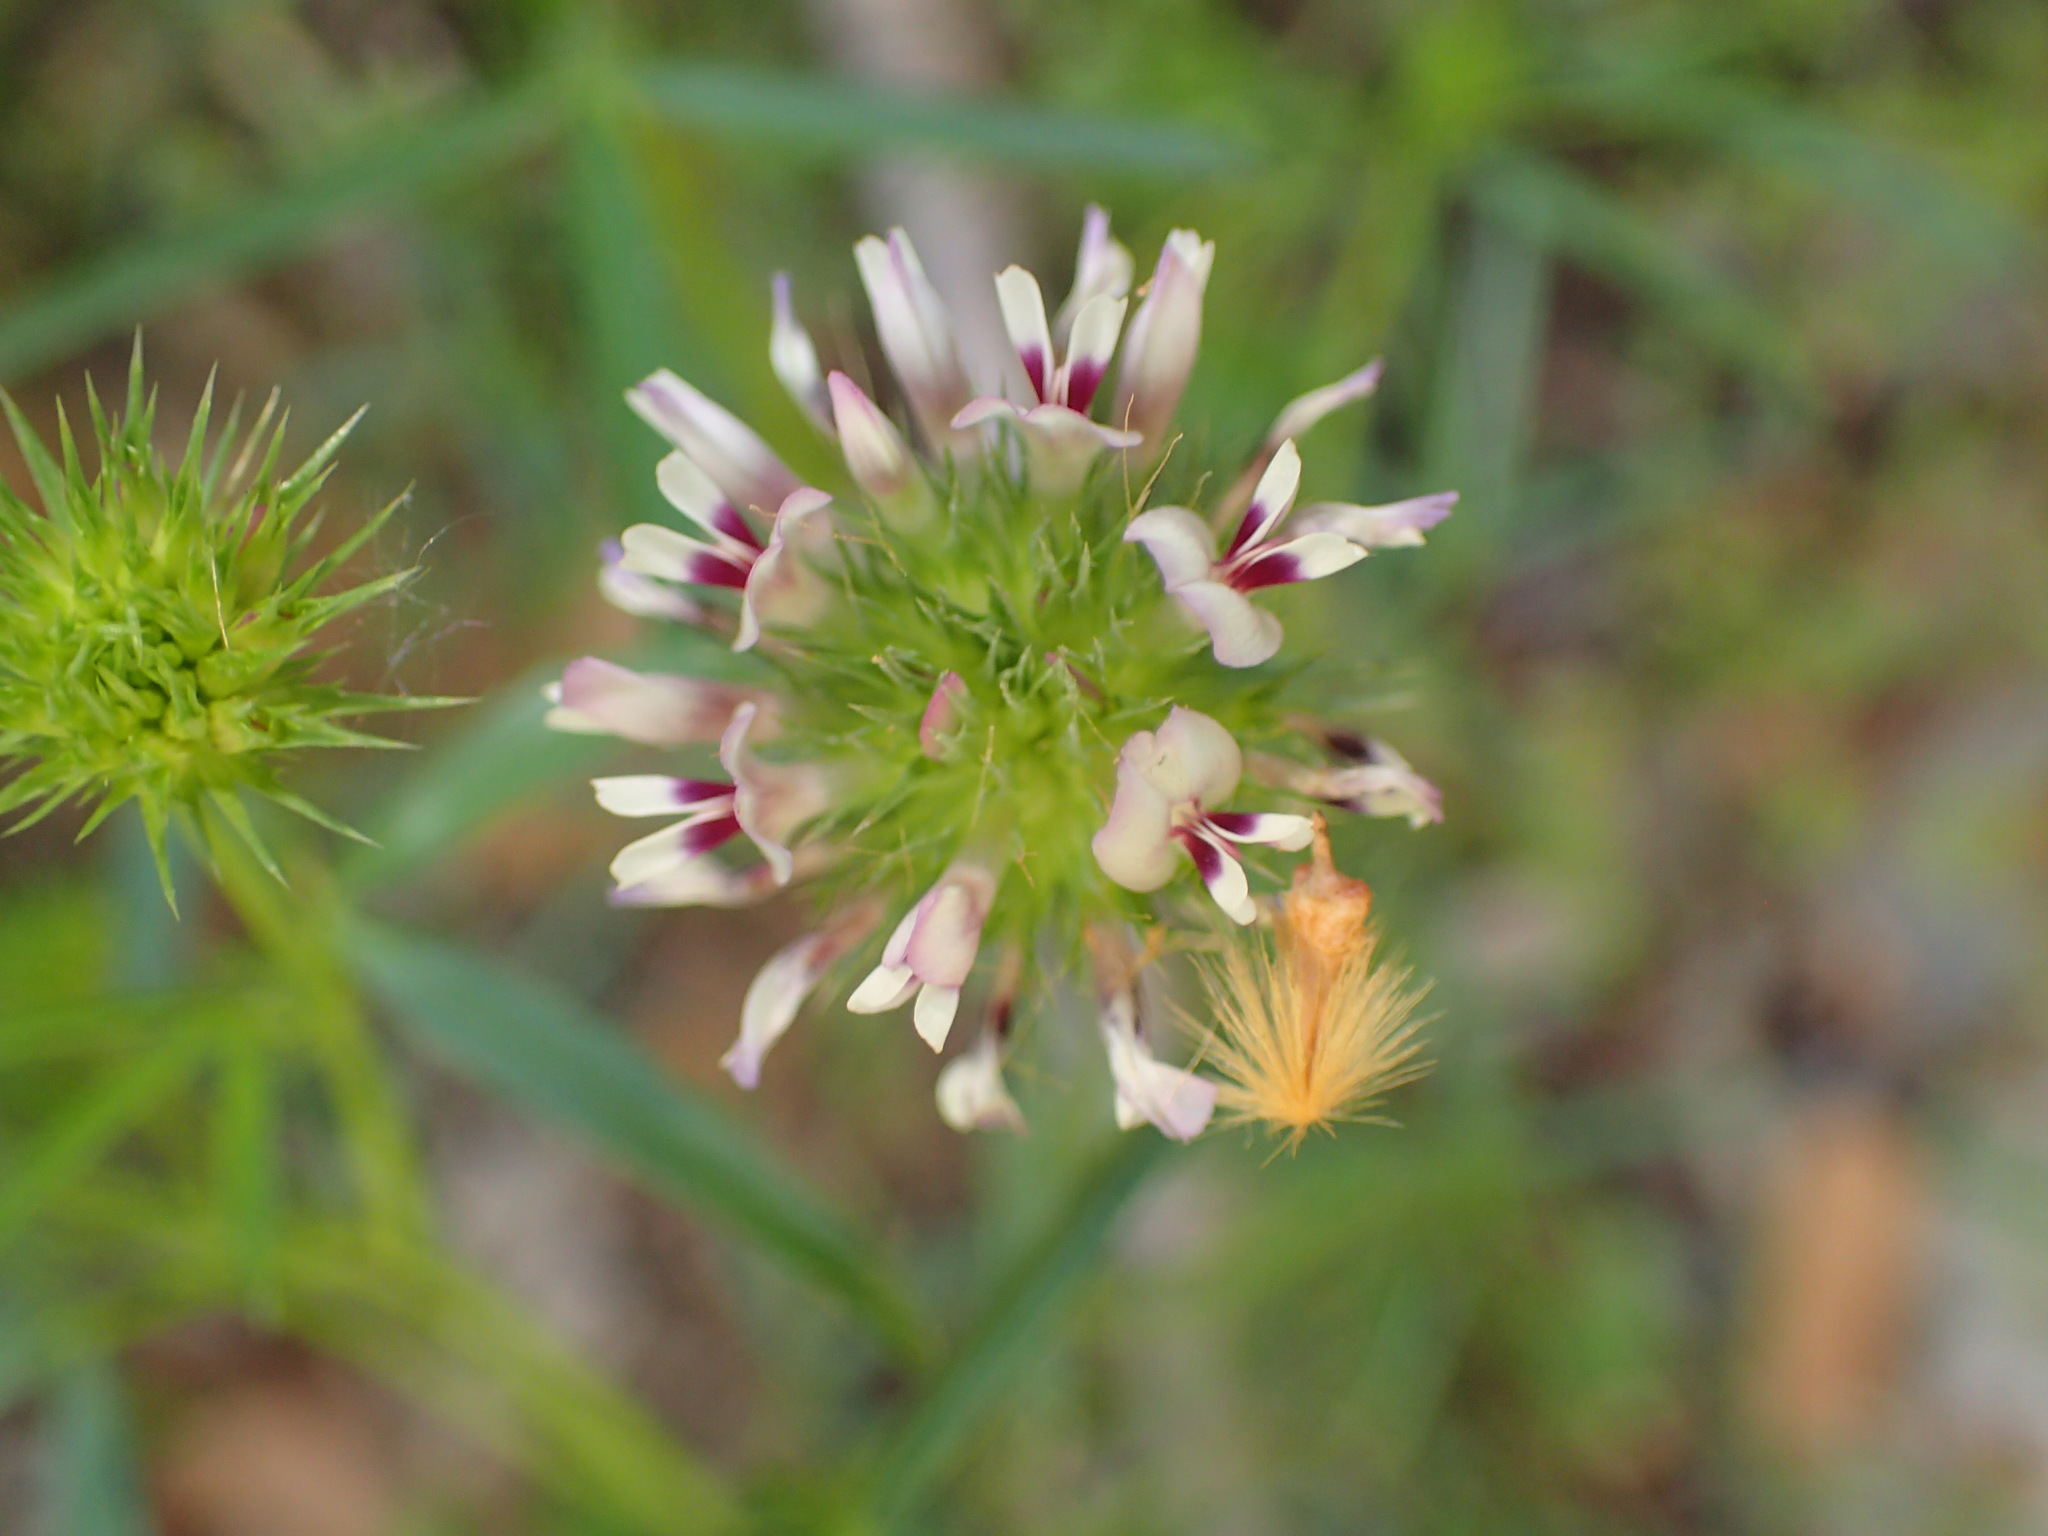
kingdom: Plantae
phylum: Tracheophyta
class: Magnoliopsida
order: Fabales
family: Fabaceae
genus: Trifolium
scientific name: Trifolium willdenovii
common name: Tomcat clover
